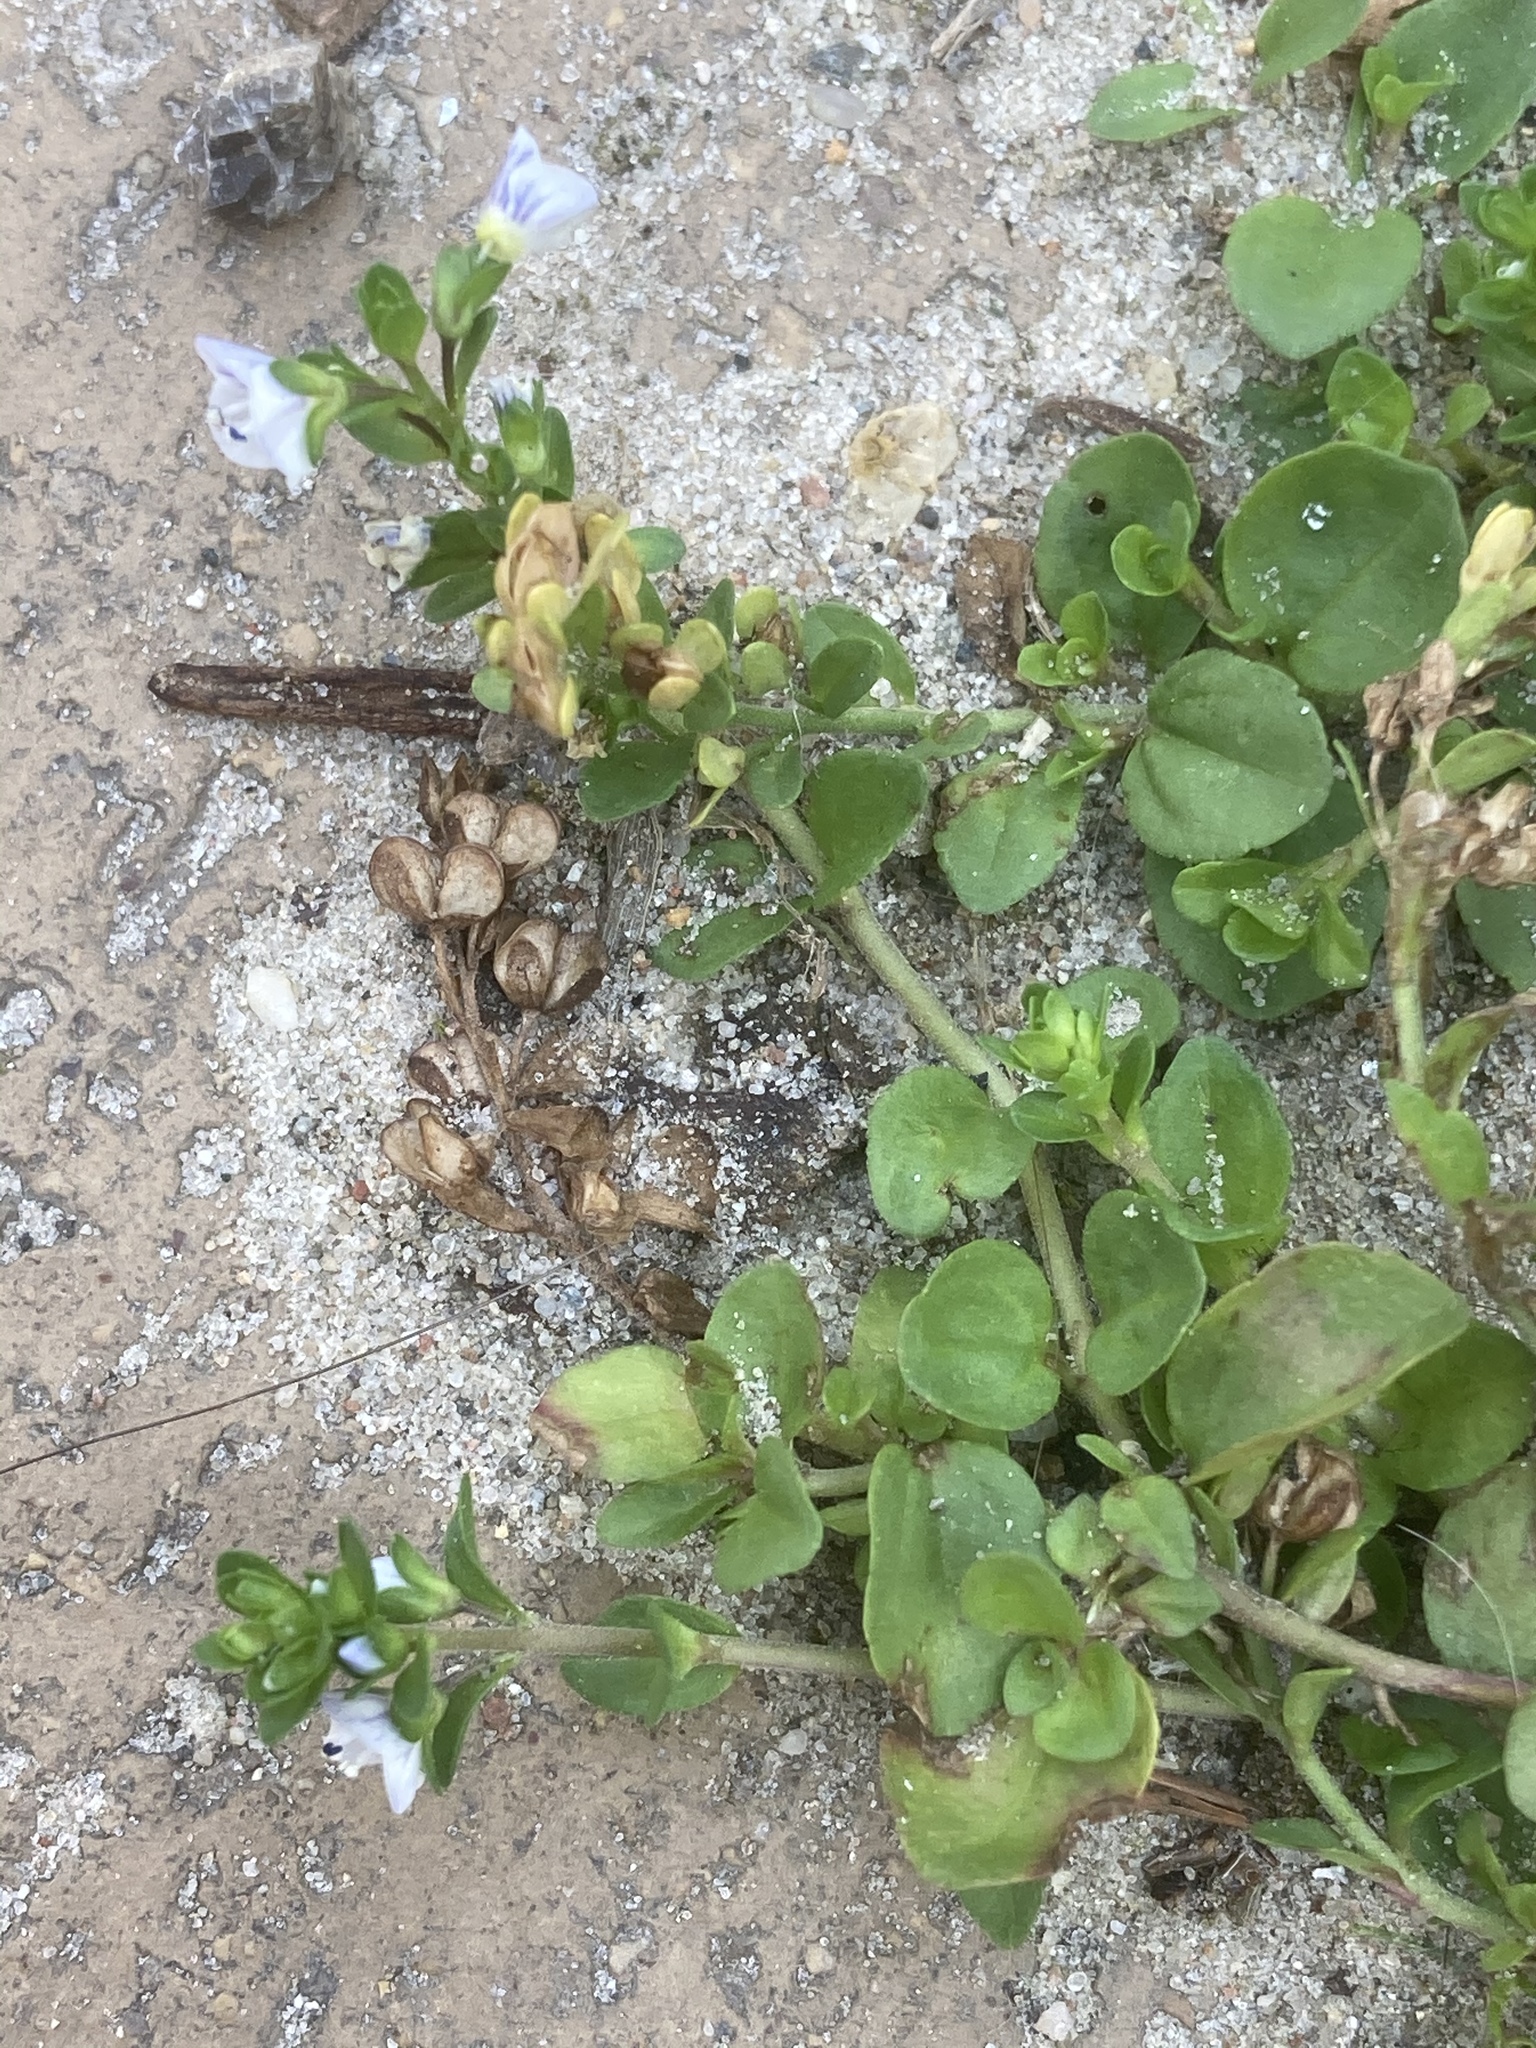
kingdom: Plantae
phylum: Tracheophyta
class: Magnoliopsida
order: Lamiales
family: Plantaginaceae
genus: Veronica
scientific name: Veronica serpyllifolia
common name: Thyme-leaved speedwell
